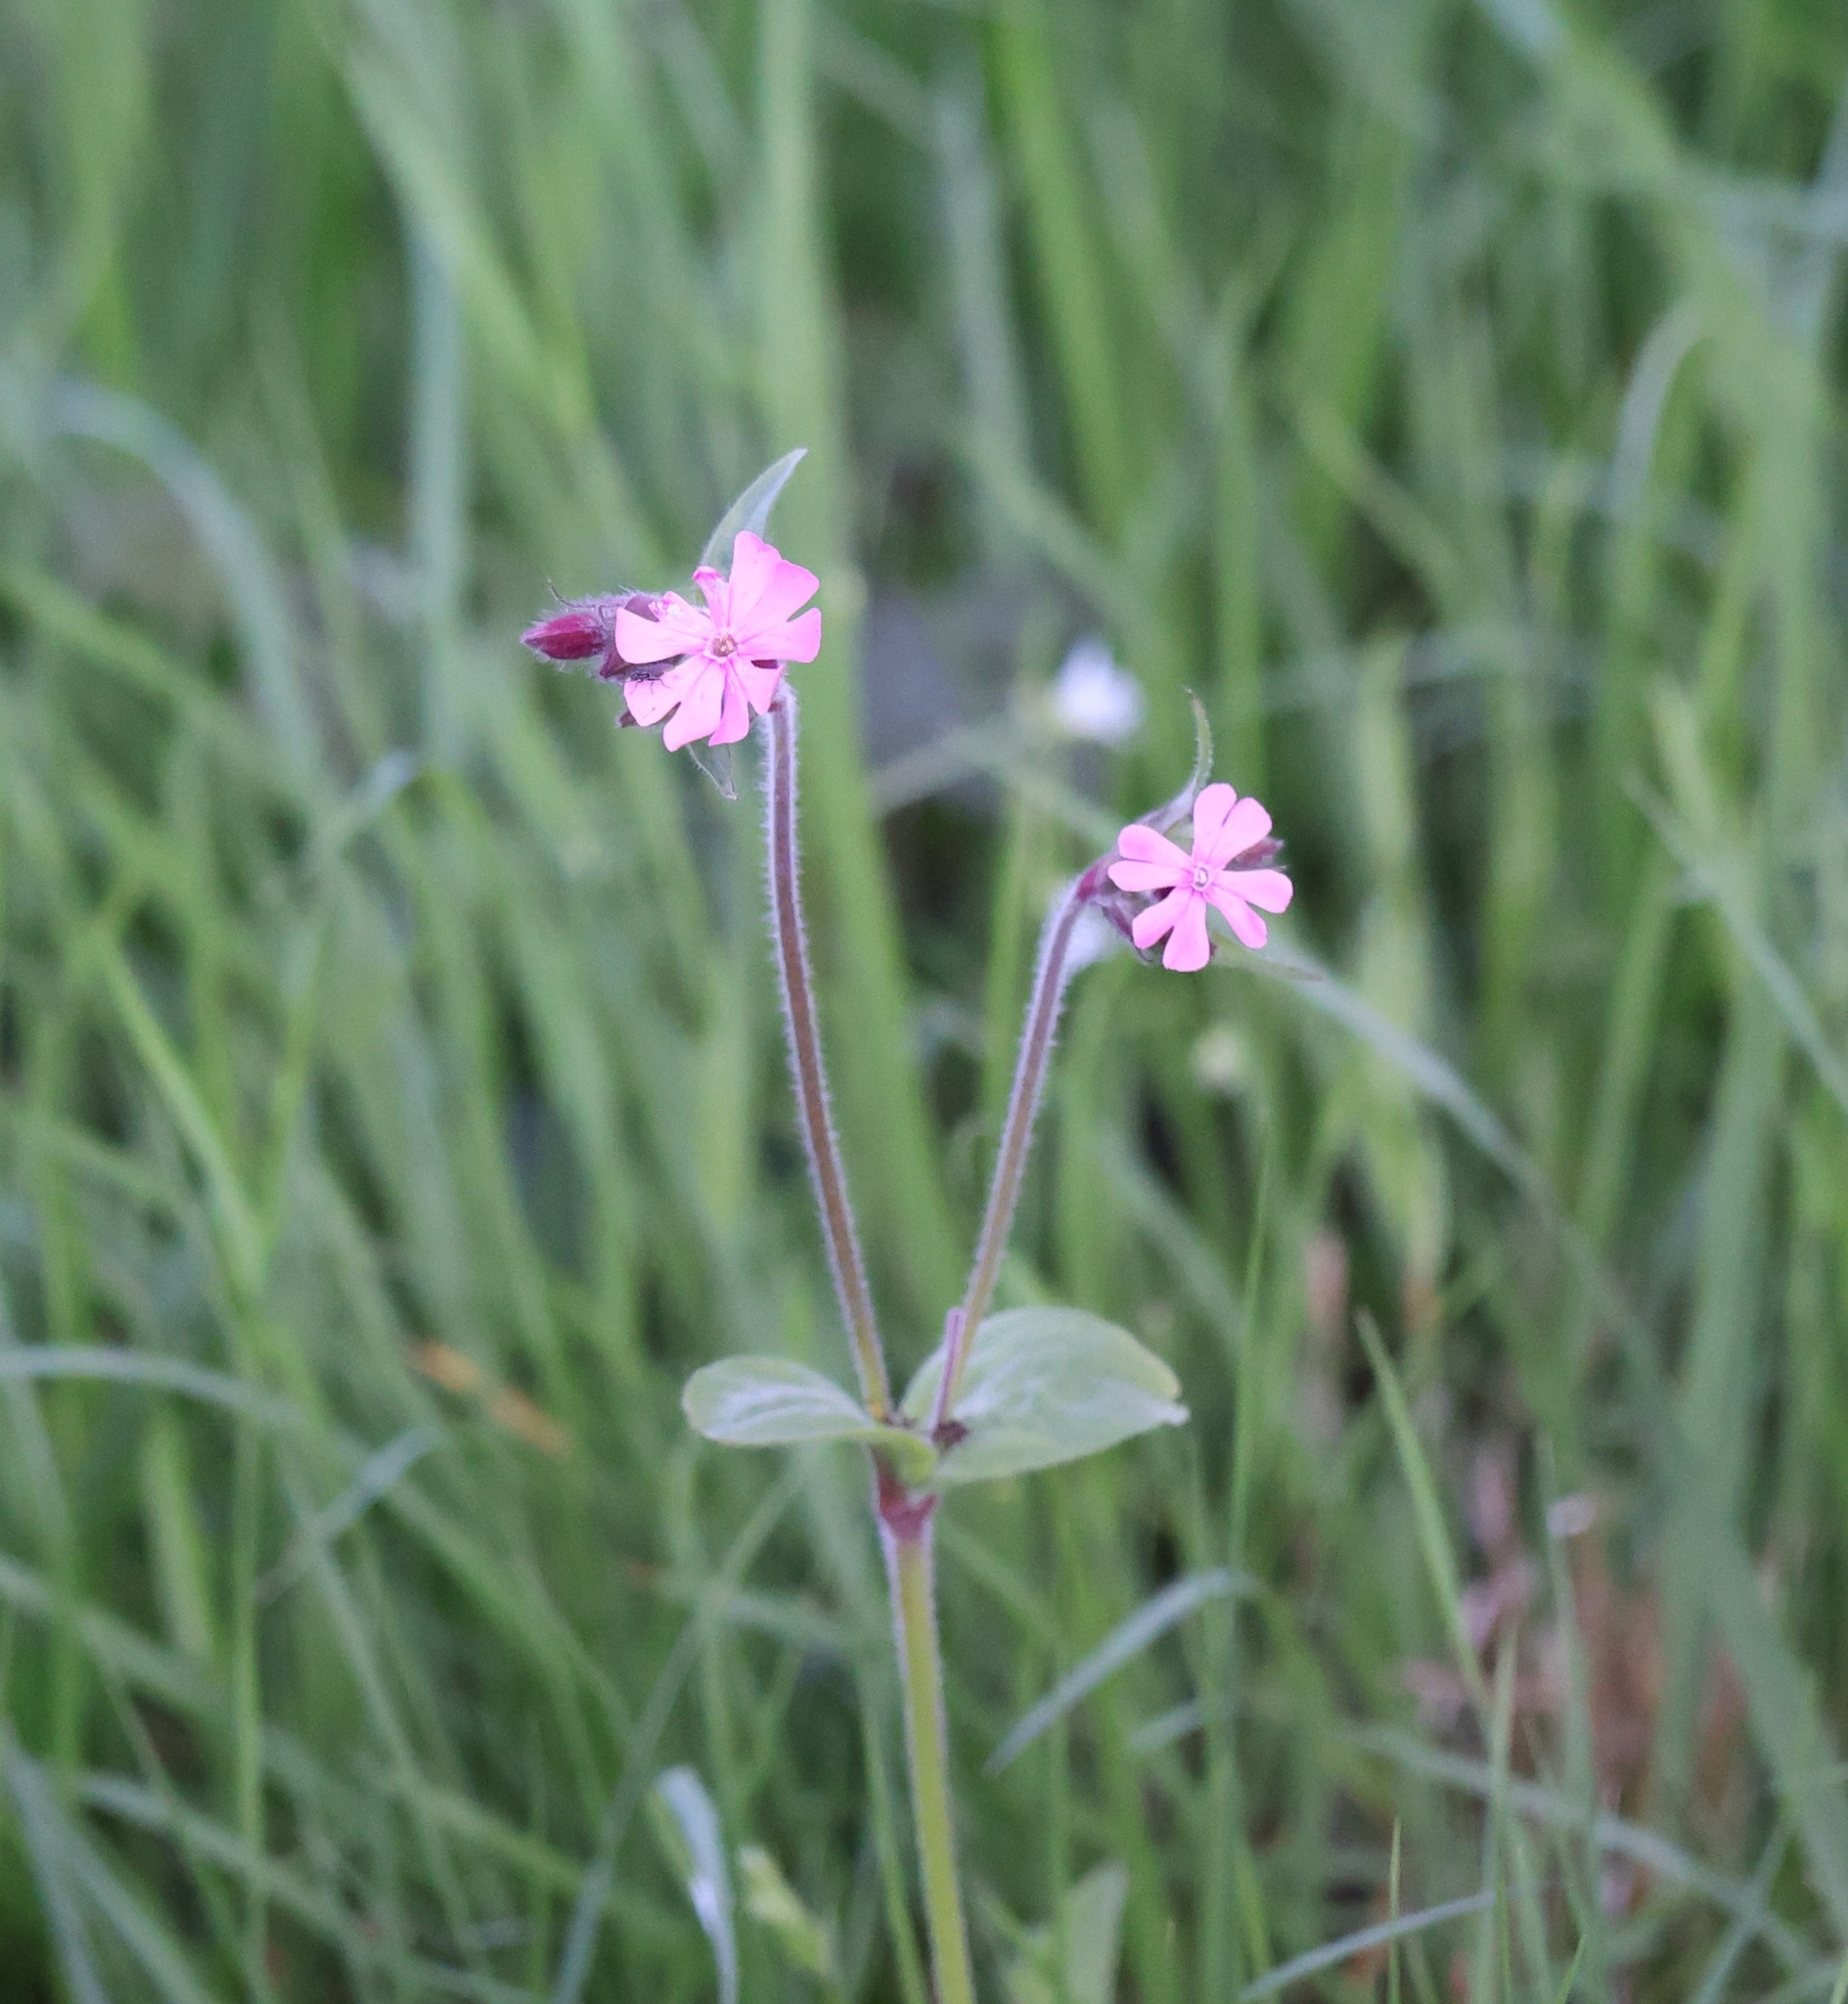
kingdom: Plantae
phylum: Tracheophyta
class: Magnoliopsida
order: Caryophyllales
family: Caryophyllaceae
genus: Silene
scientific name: Silene dioica
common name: Red campion
